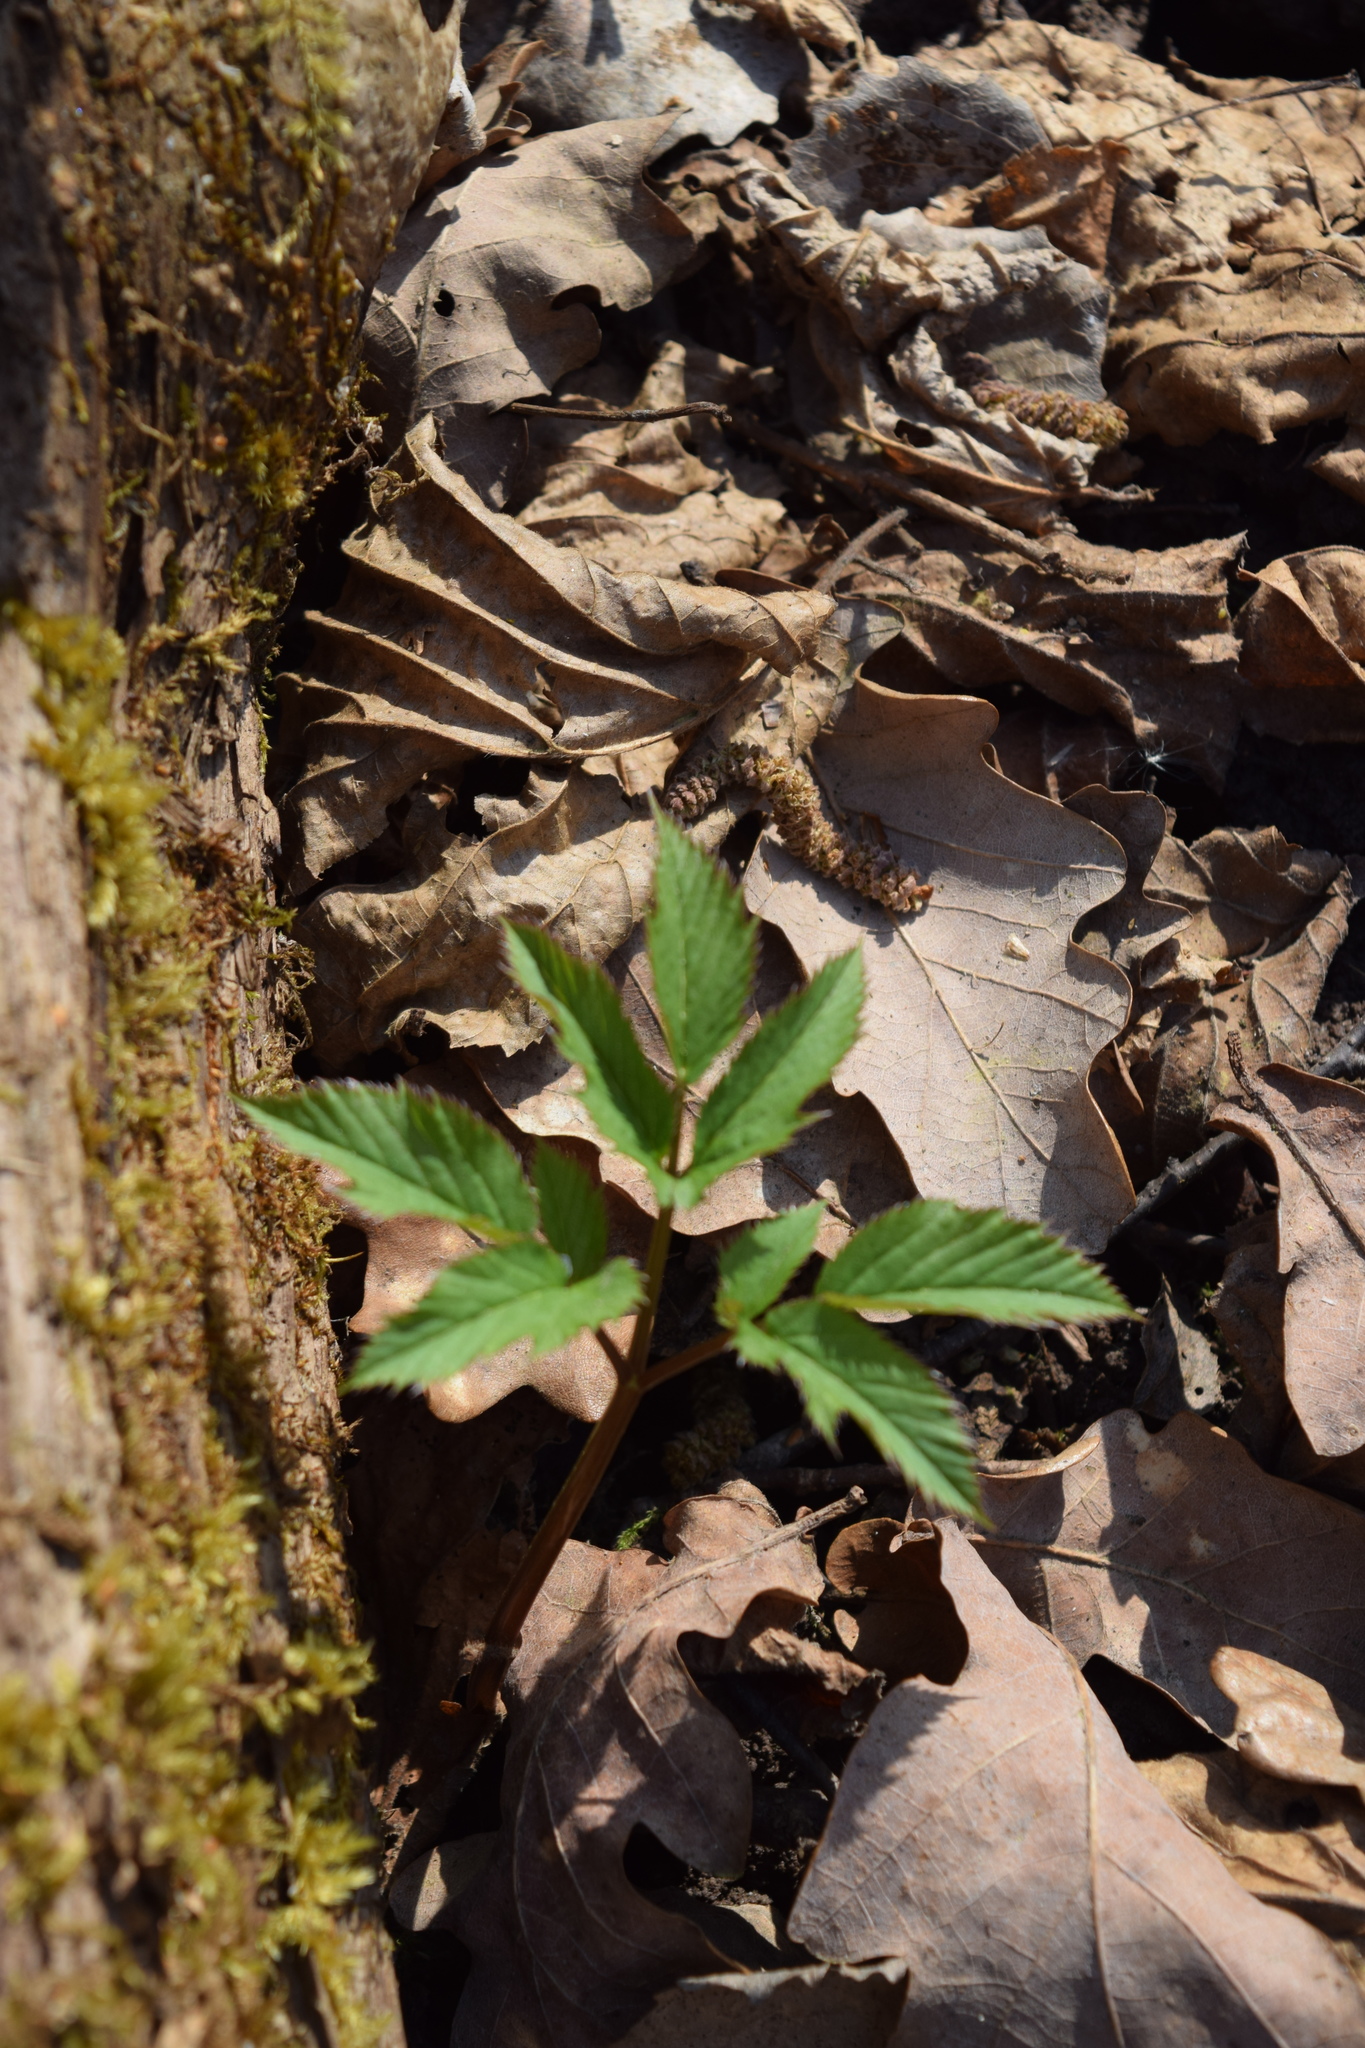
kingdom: Plantae
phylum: Tracheophyta
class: Magnoliopsida
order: Apiales
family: Apiaceae
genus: Aegopodium
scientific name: Aegopodium podagraria
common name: Ground-elder
